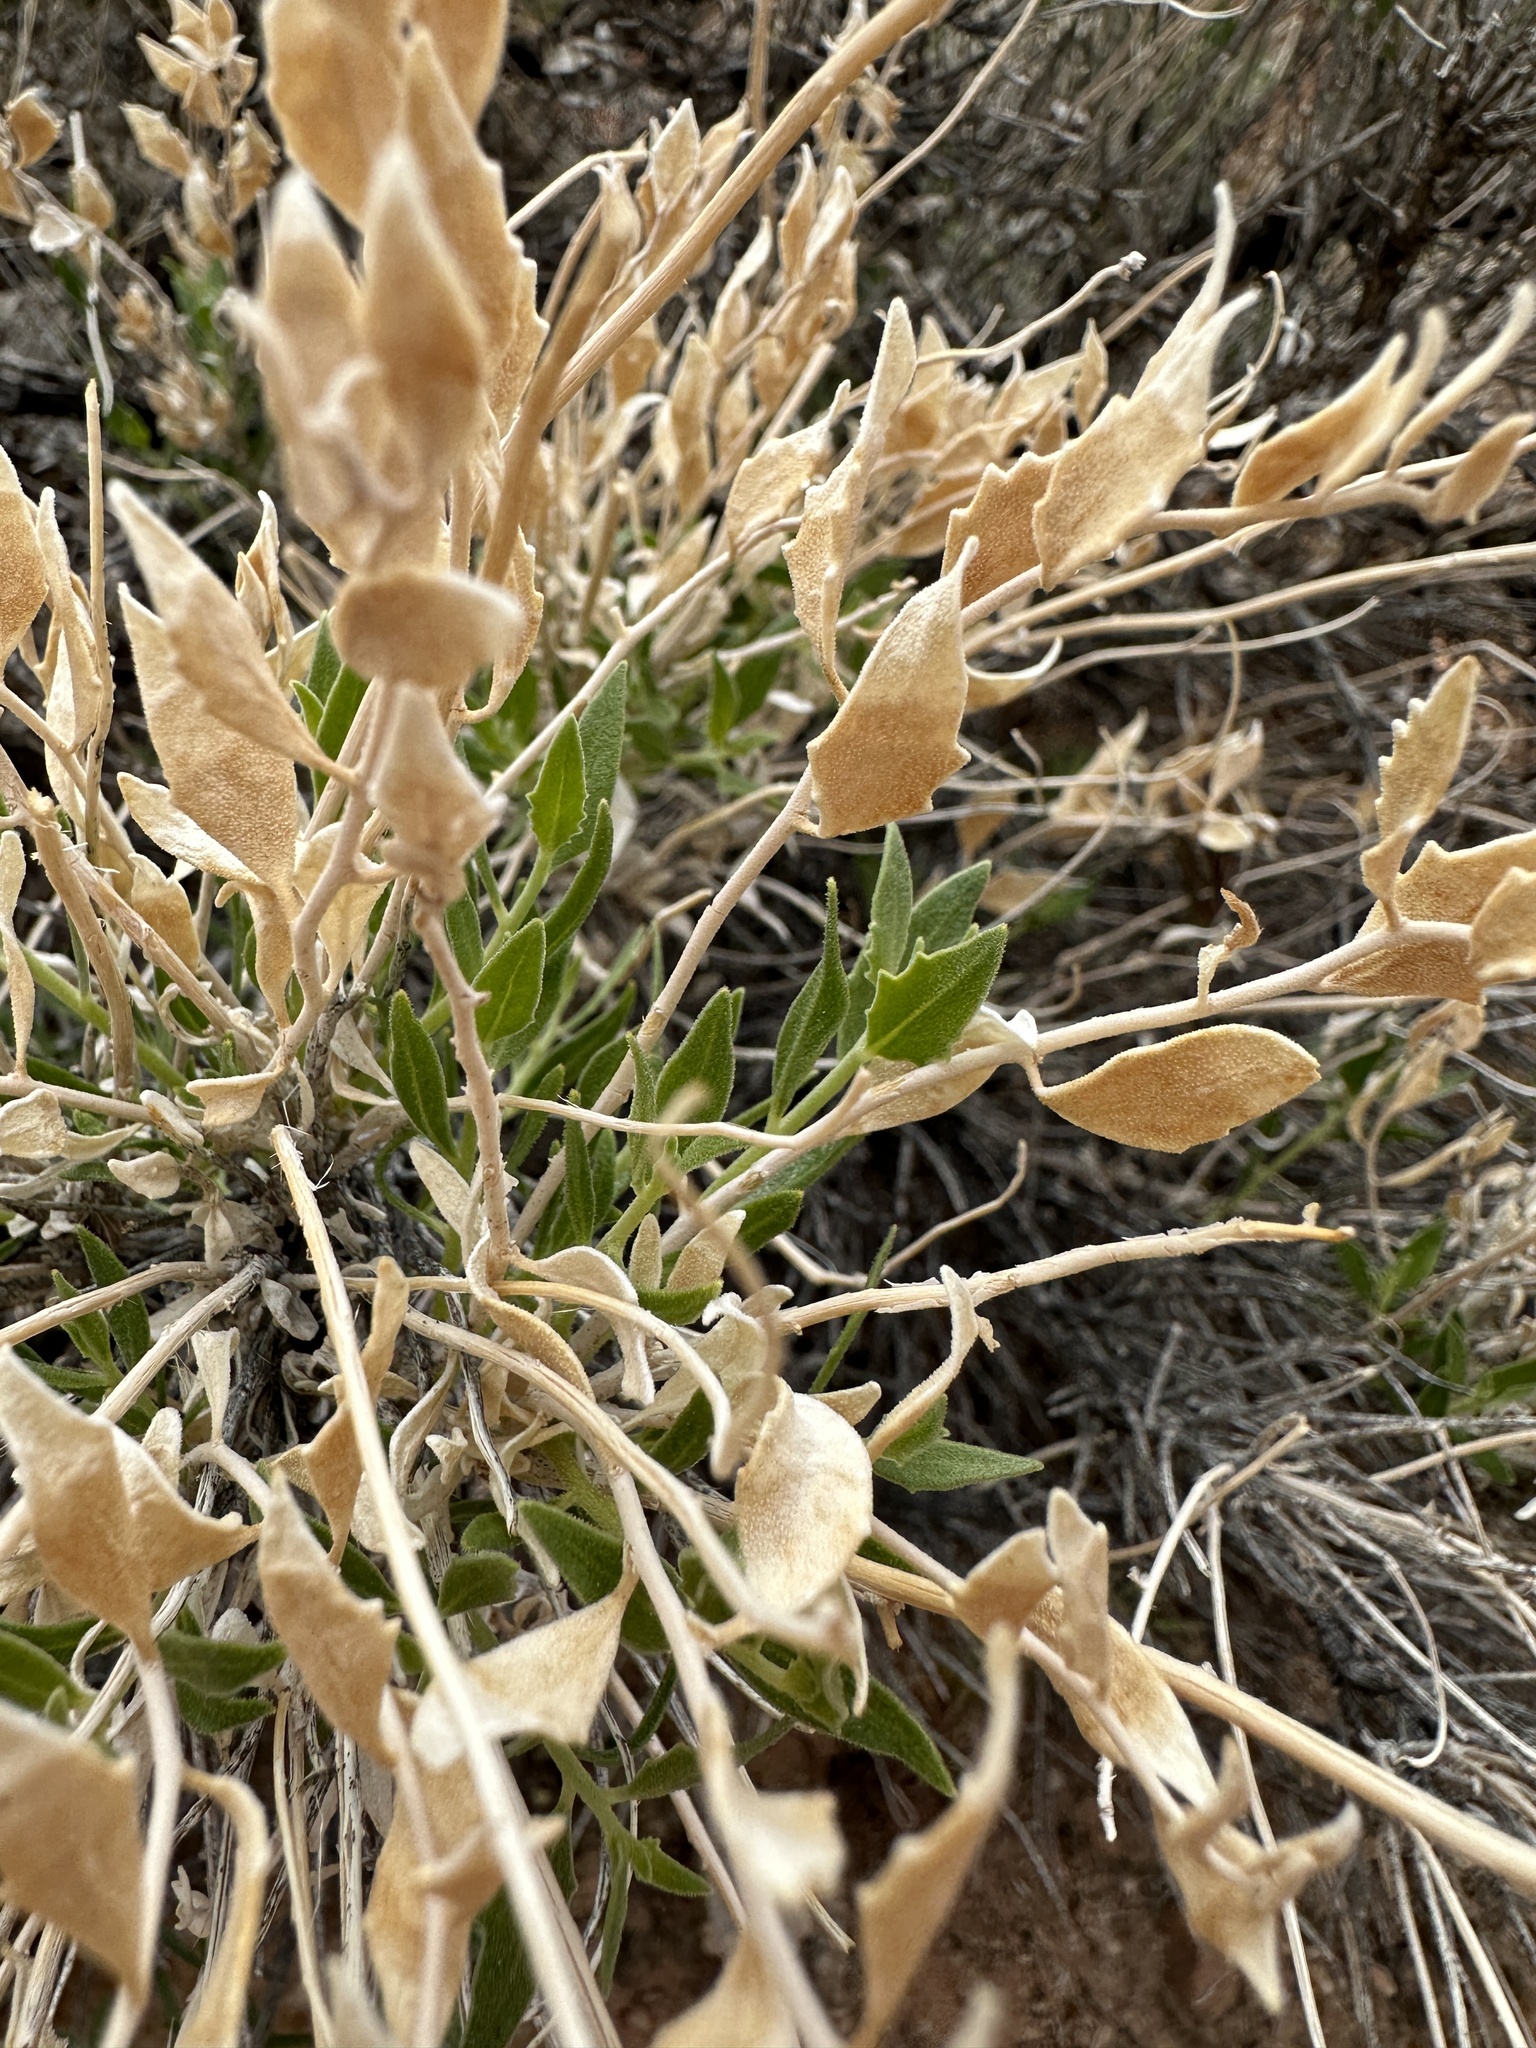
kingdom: Plantae
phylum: Tracheophyta
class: Magnoliopsida
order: Cornales
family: Loasaceae
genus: Petalonyx
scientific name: Petalonyx nitidus
